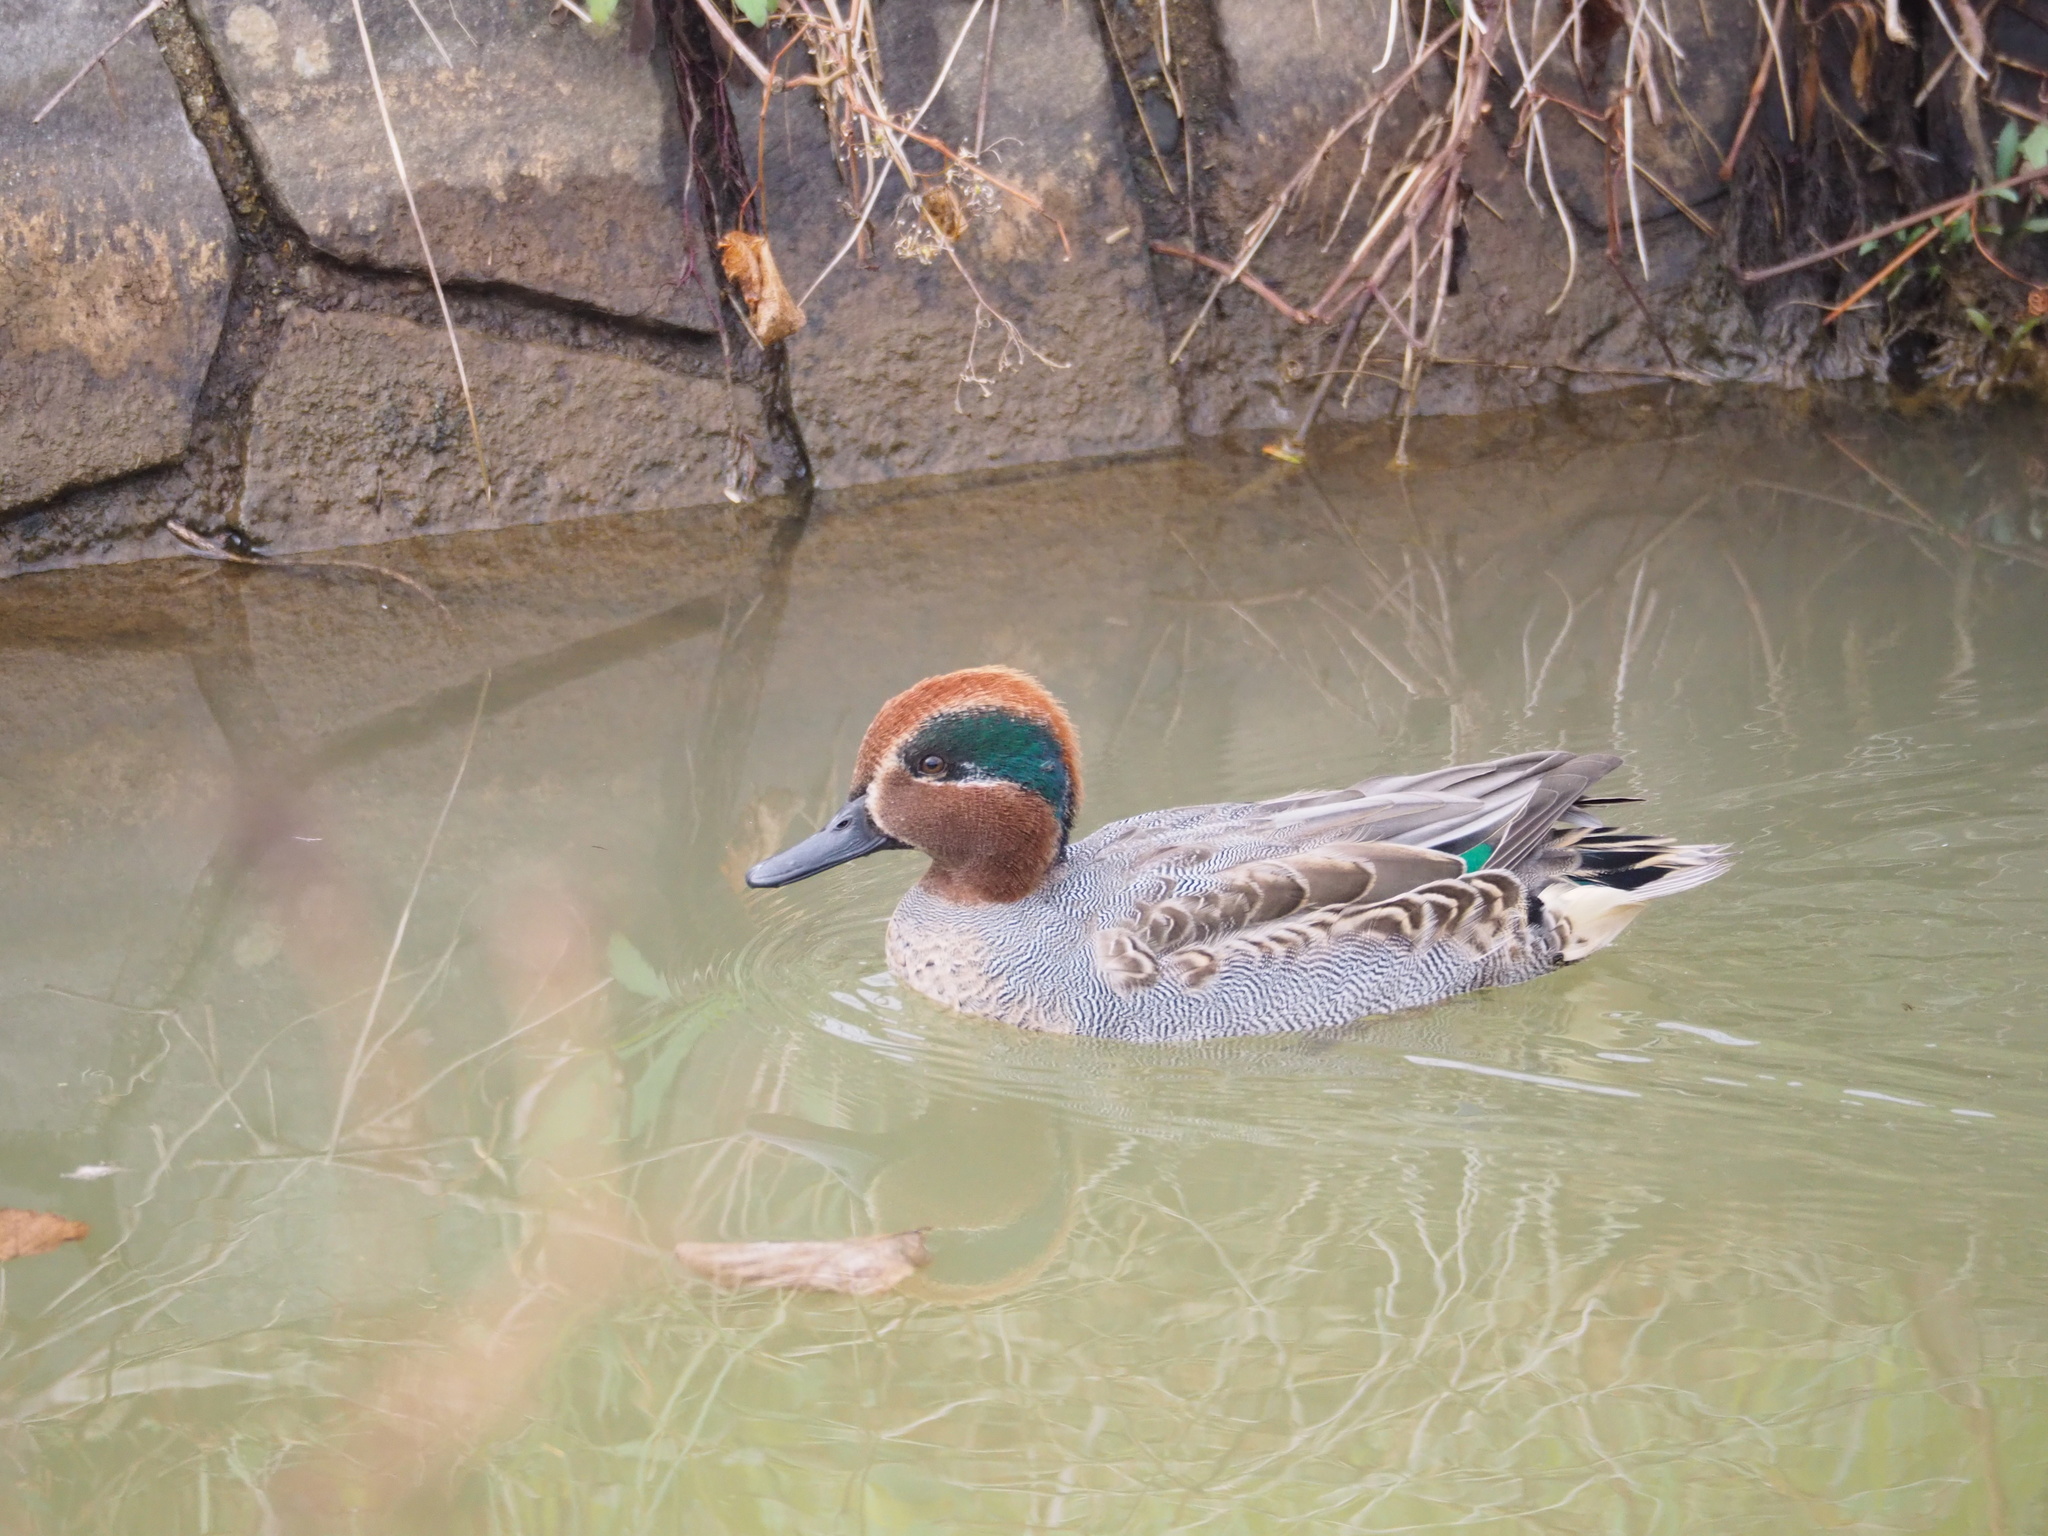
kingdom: Animalia
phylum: Chordata
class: Aves
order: Anseriformes
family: Anatidae
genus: Anas
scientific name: Anas crecca
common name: Eurasian teal
